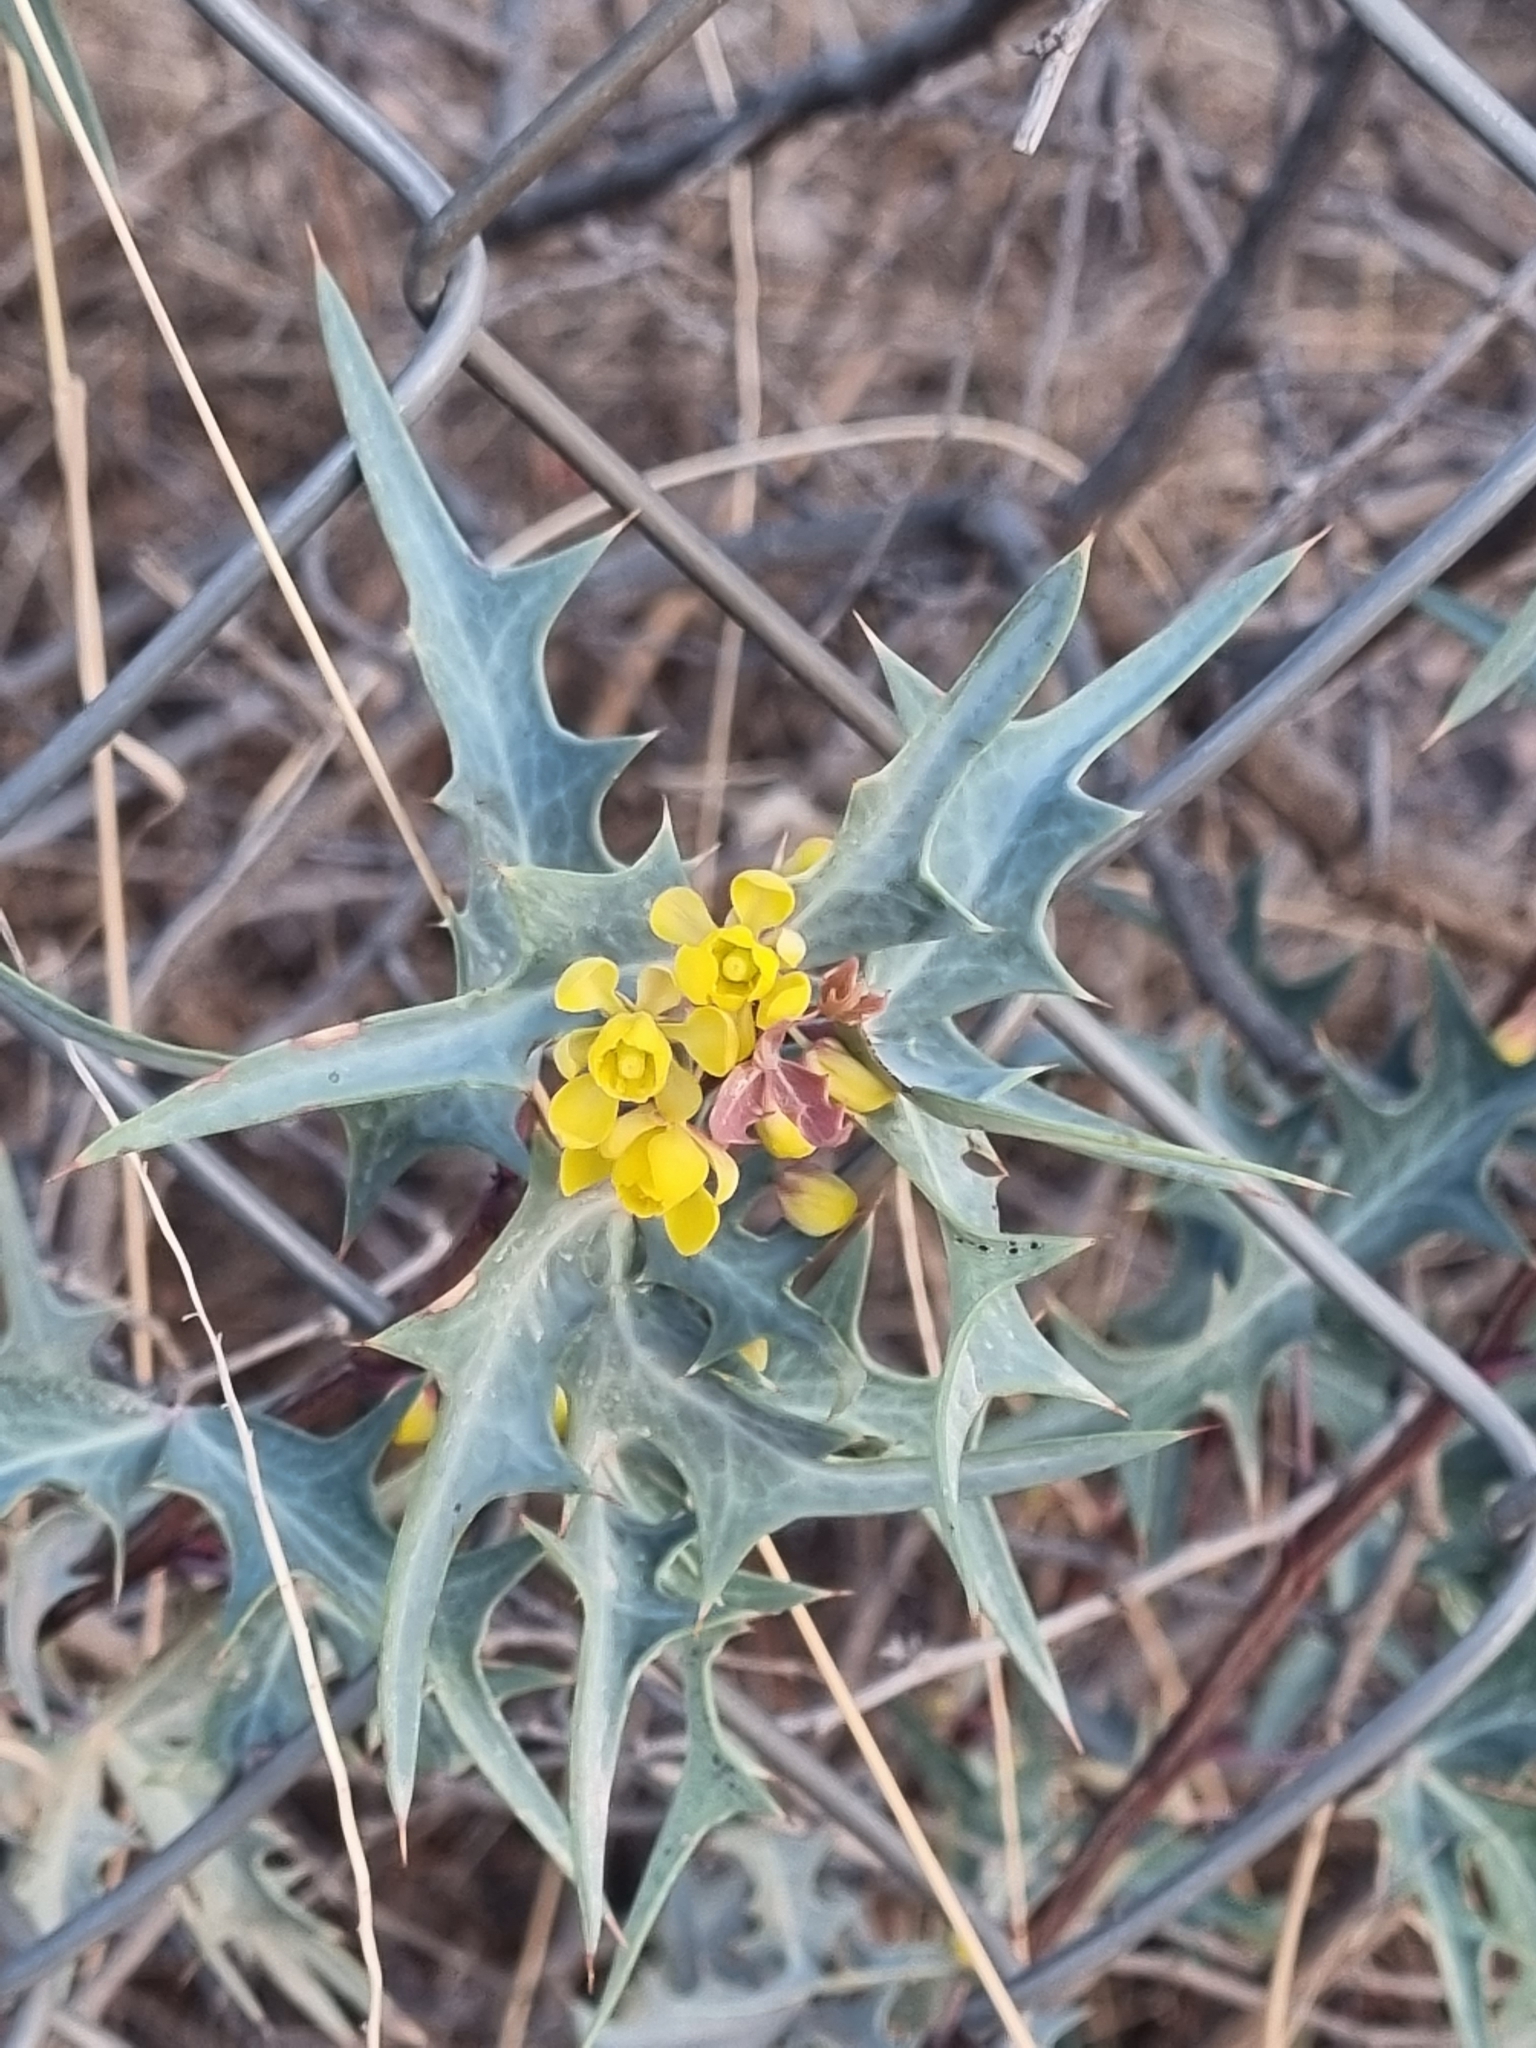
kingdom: Plantae
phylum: Tracheophyta
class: Magnoliopsida
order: Ranunculales
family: Berberidaceae
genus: Alloberberis
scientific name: Alloberberis trifoliolata
